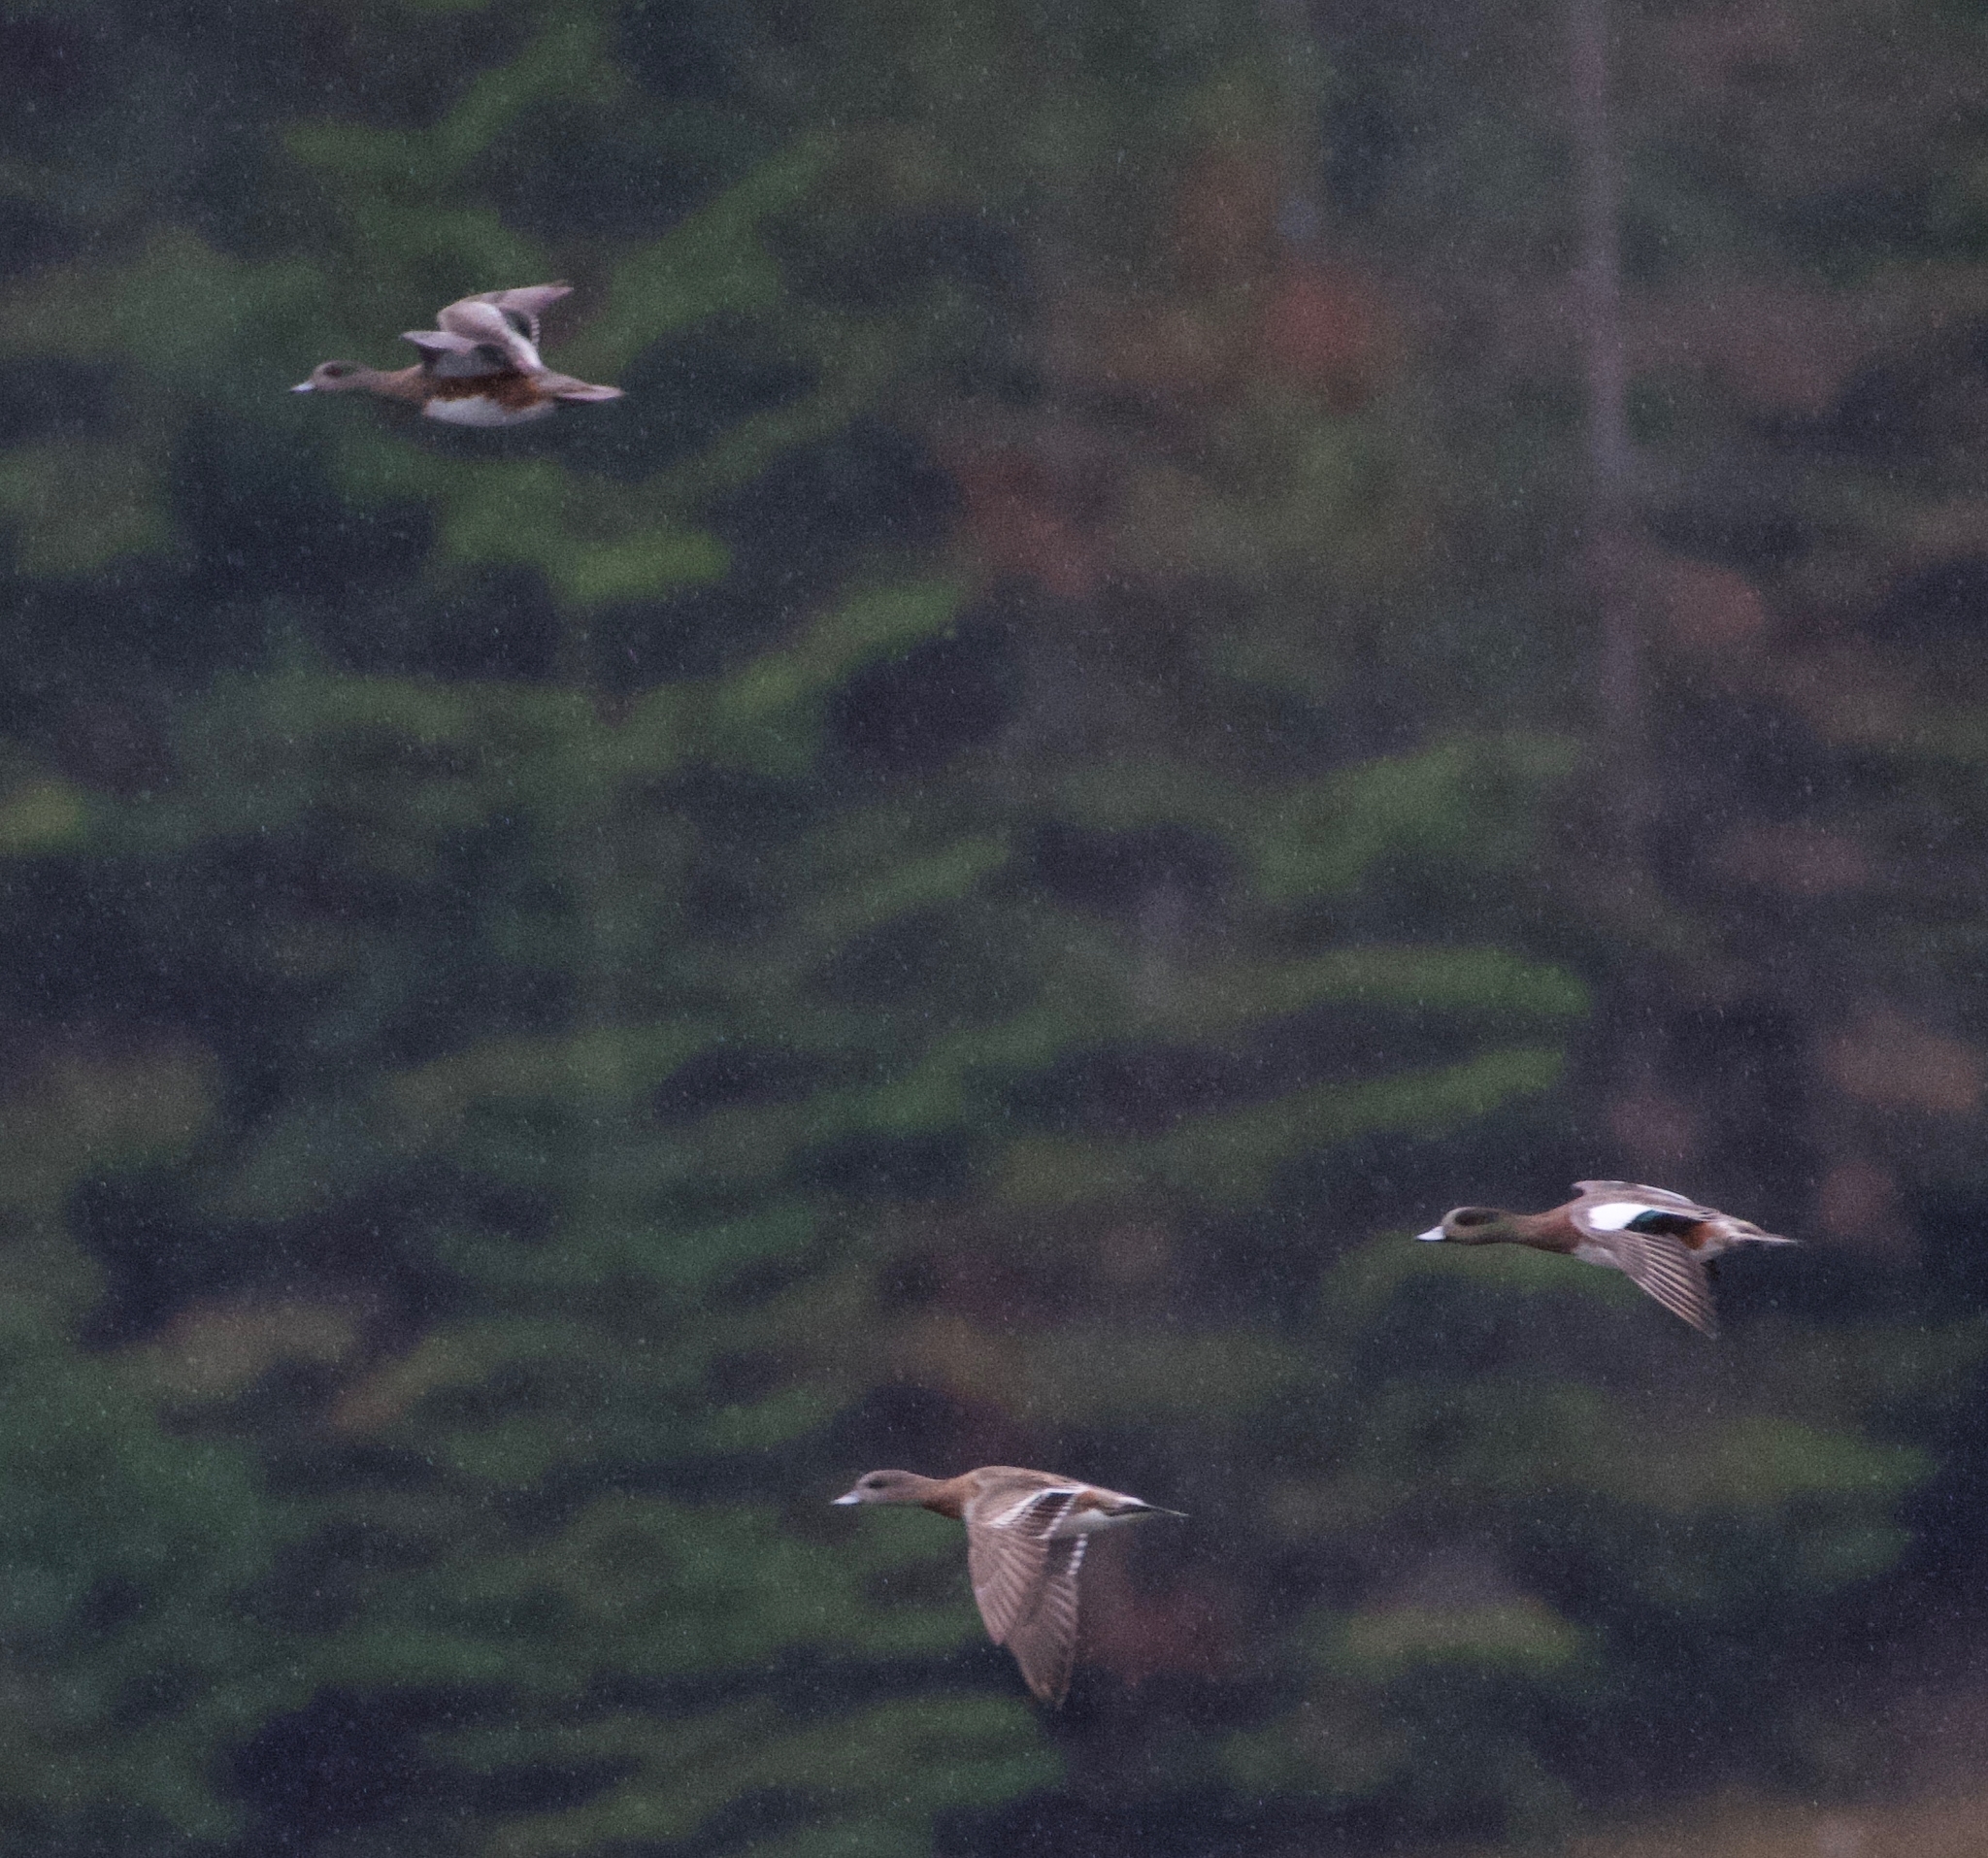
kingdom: Animalia
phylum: Chordata
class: Aves
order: Anseriformes
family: Anatidae
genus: Mareca
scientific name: Mareca americana
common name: American wigeon
